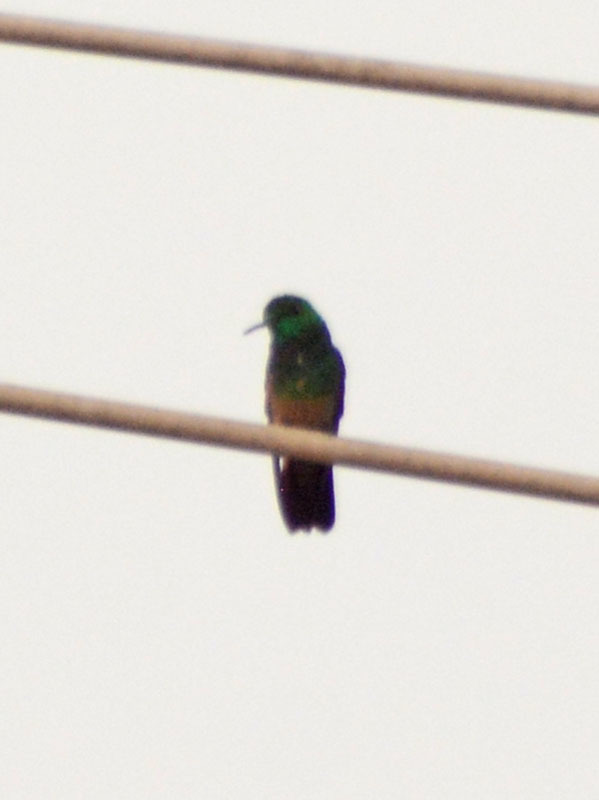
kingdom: Animalia
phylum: Chordata
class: Aves
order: Apodiformes
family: Trochilidae
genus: Saucerottia
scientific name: Saucerottia beryllina
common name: Berylline hummingbird
